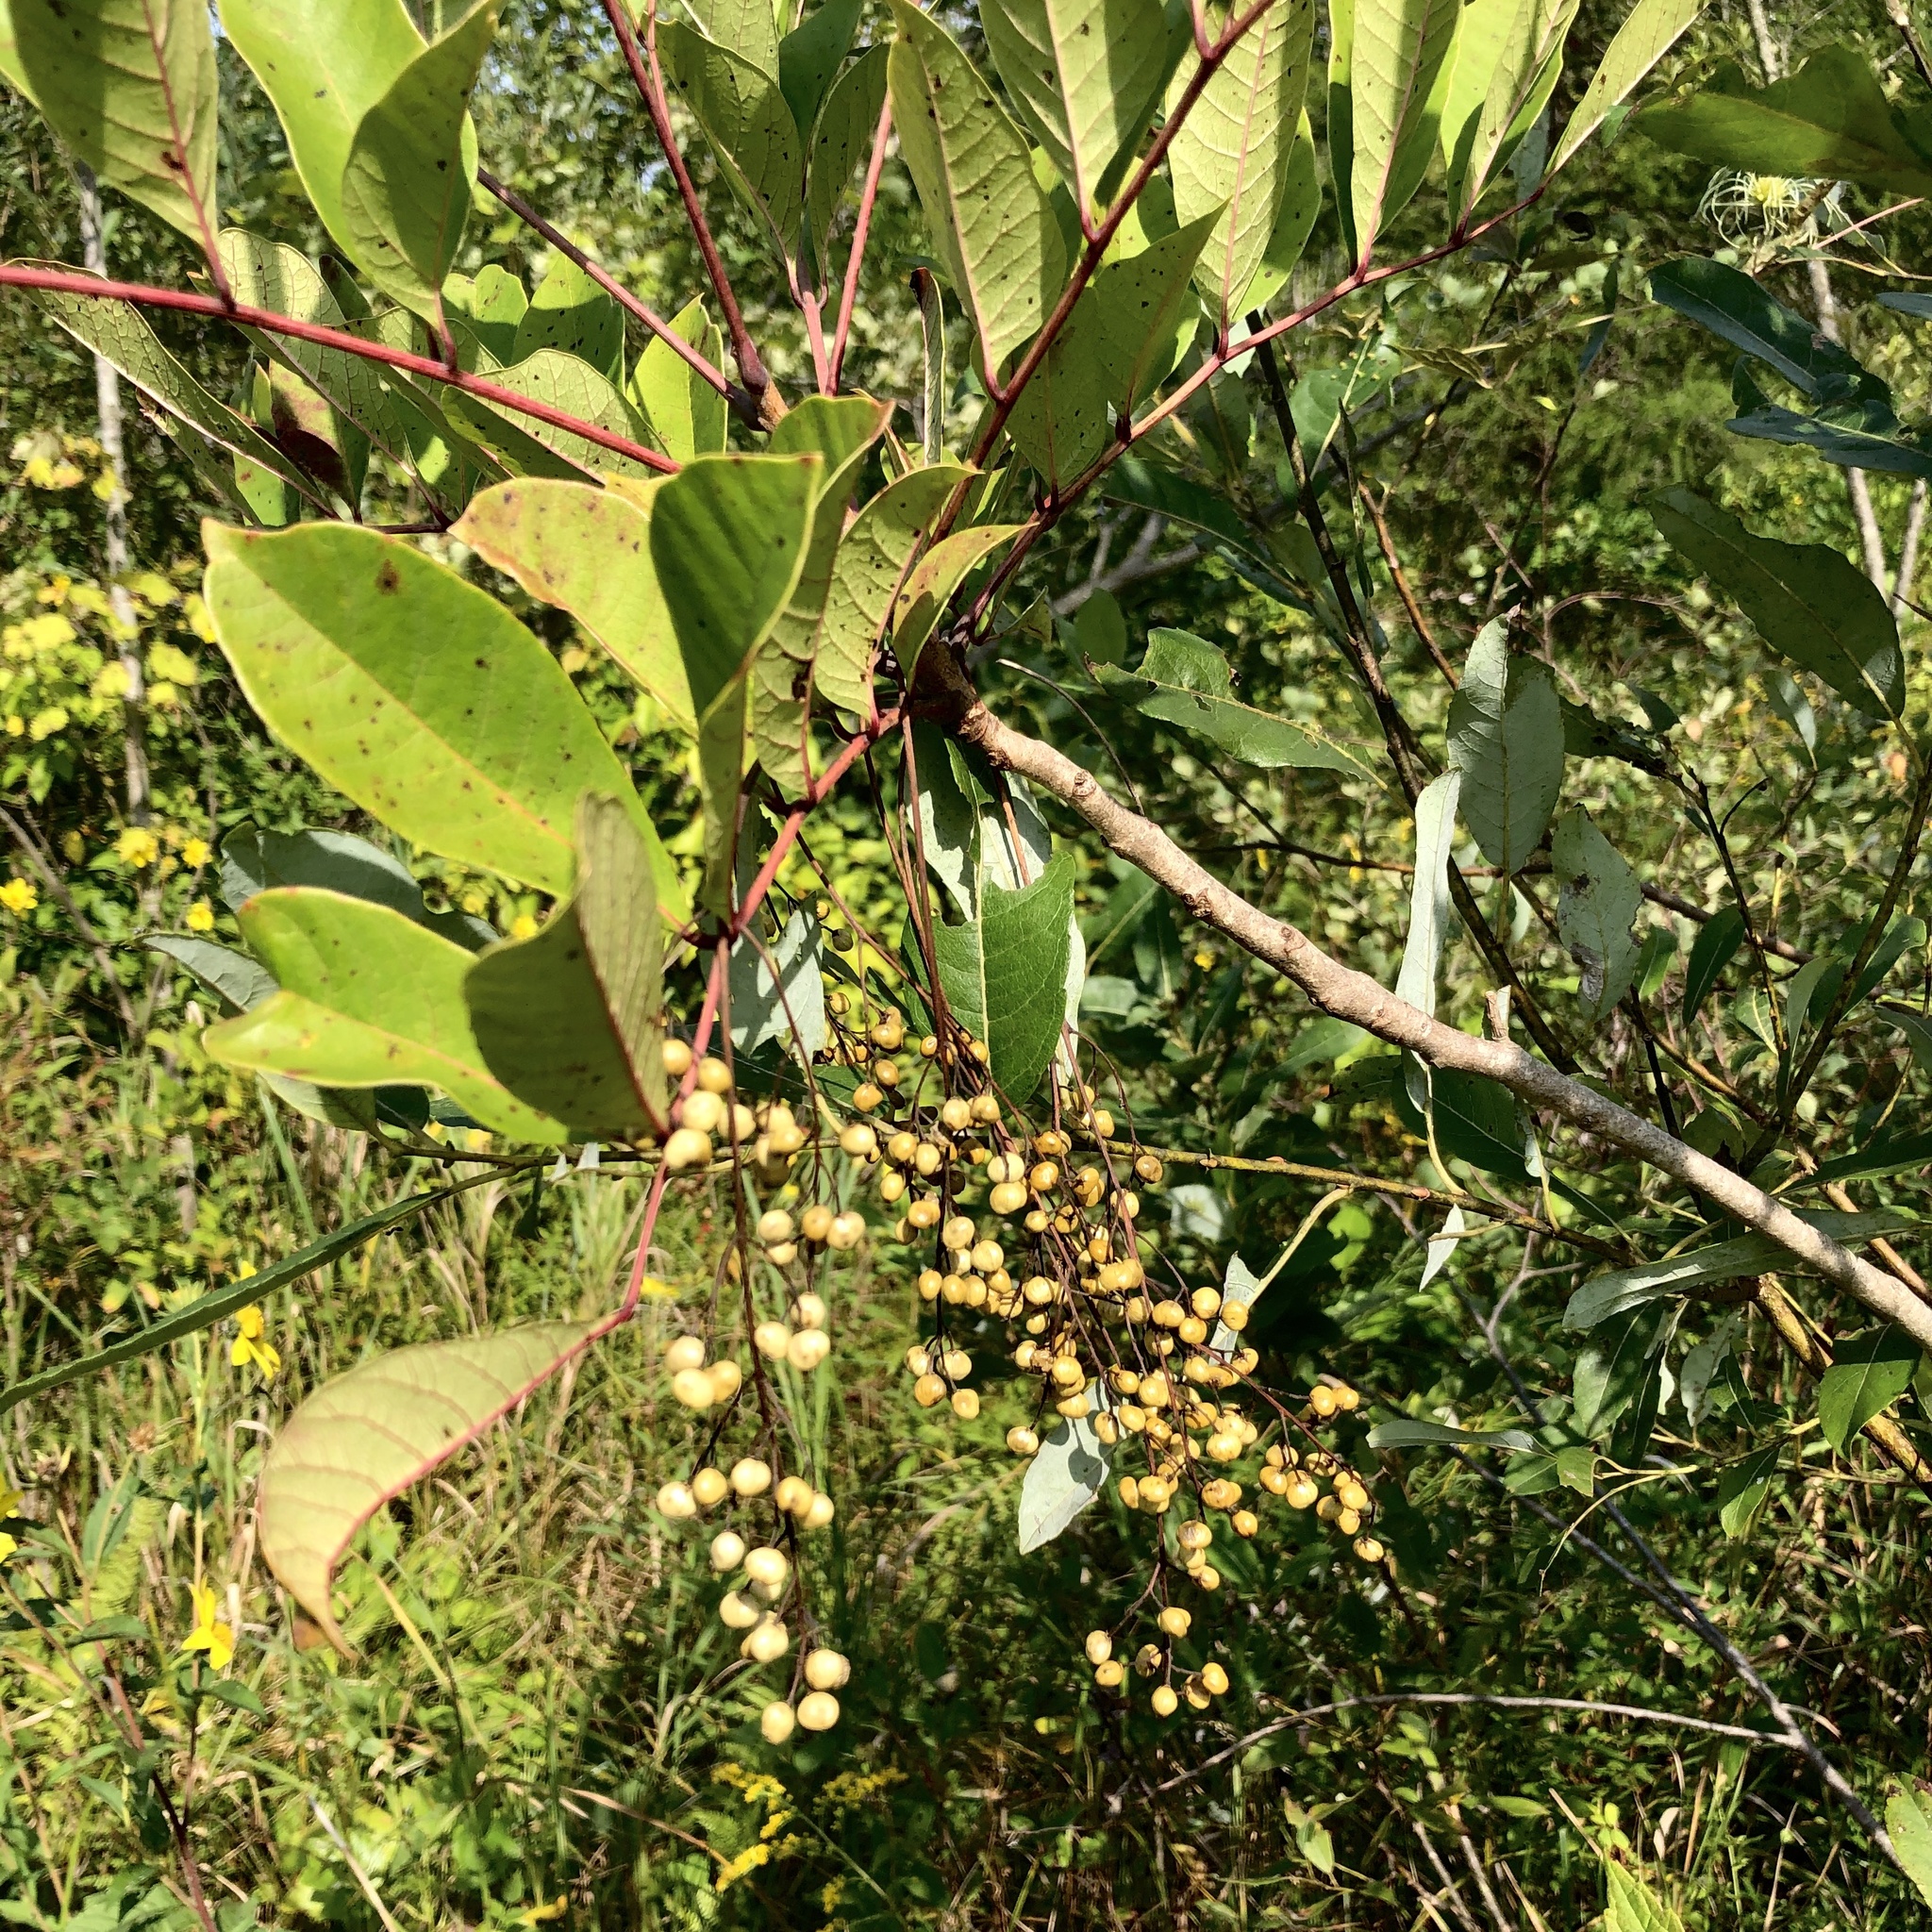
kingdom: Plantae
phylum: Tracheophyta
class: Magnoliopsida
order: Sapindales
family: Anacardiaceae
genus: Toxicodendron
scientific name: Toxicodendron vernix
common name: Poison sumac
